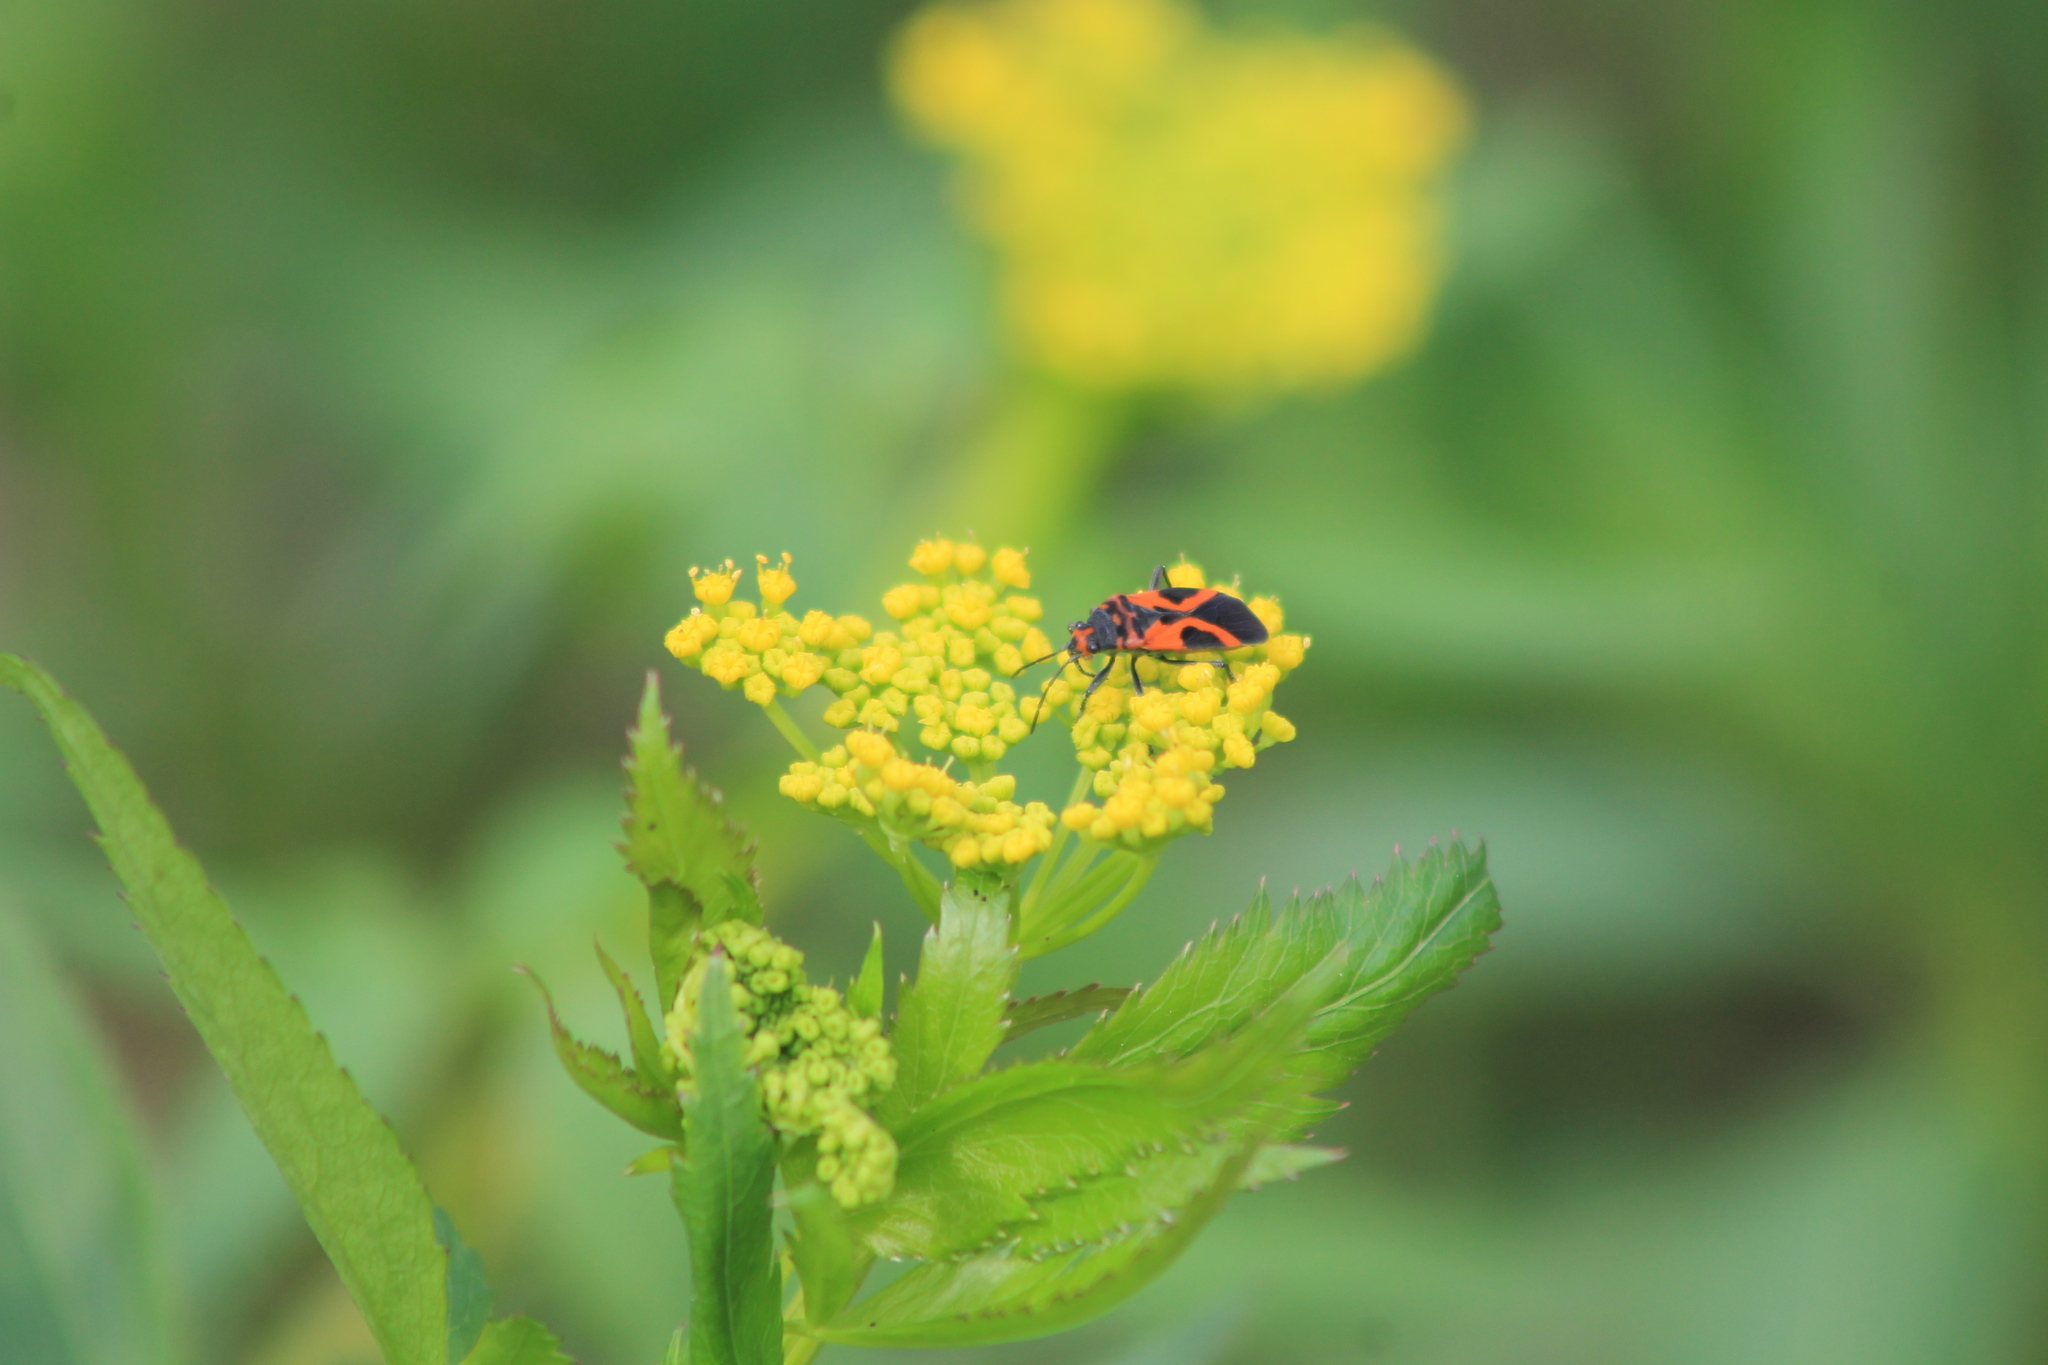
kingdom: Animalia
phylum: Arthropoda
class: Insecta
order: Hemiptera
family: Lygaeidae
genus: Lygaeus
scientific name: Lygaeus turcicus
